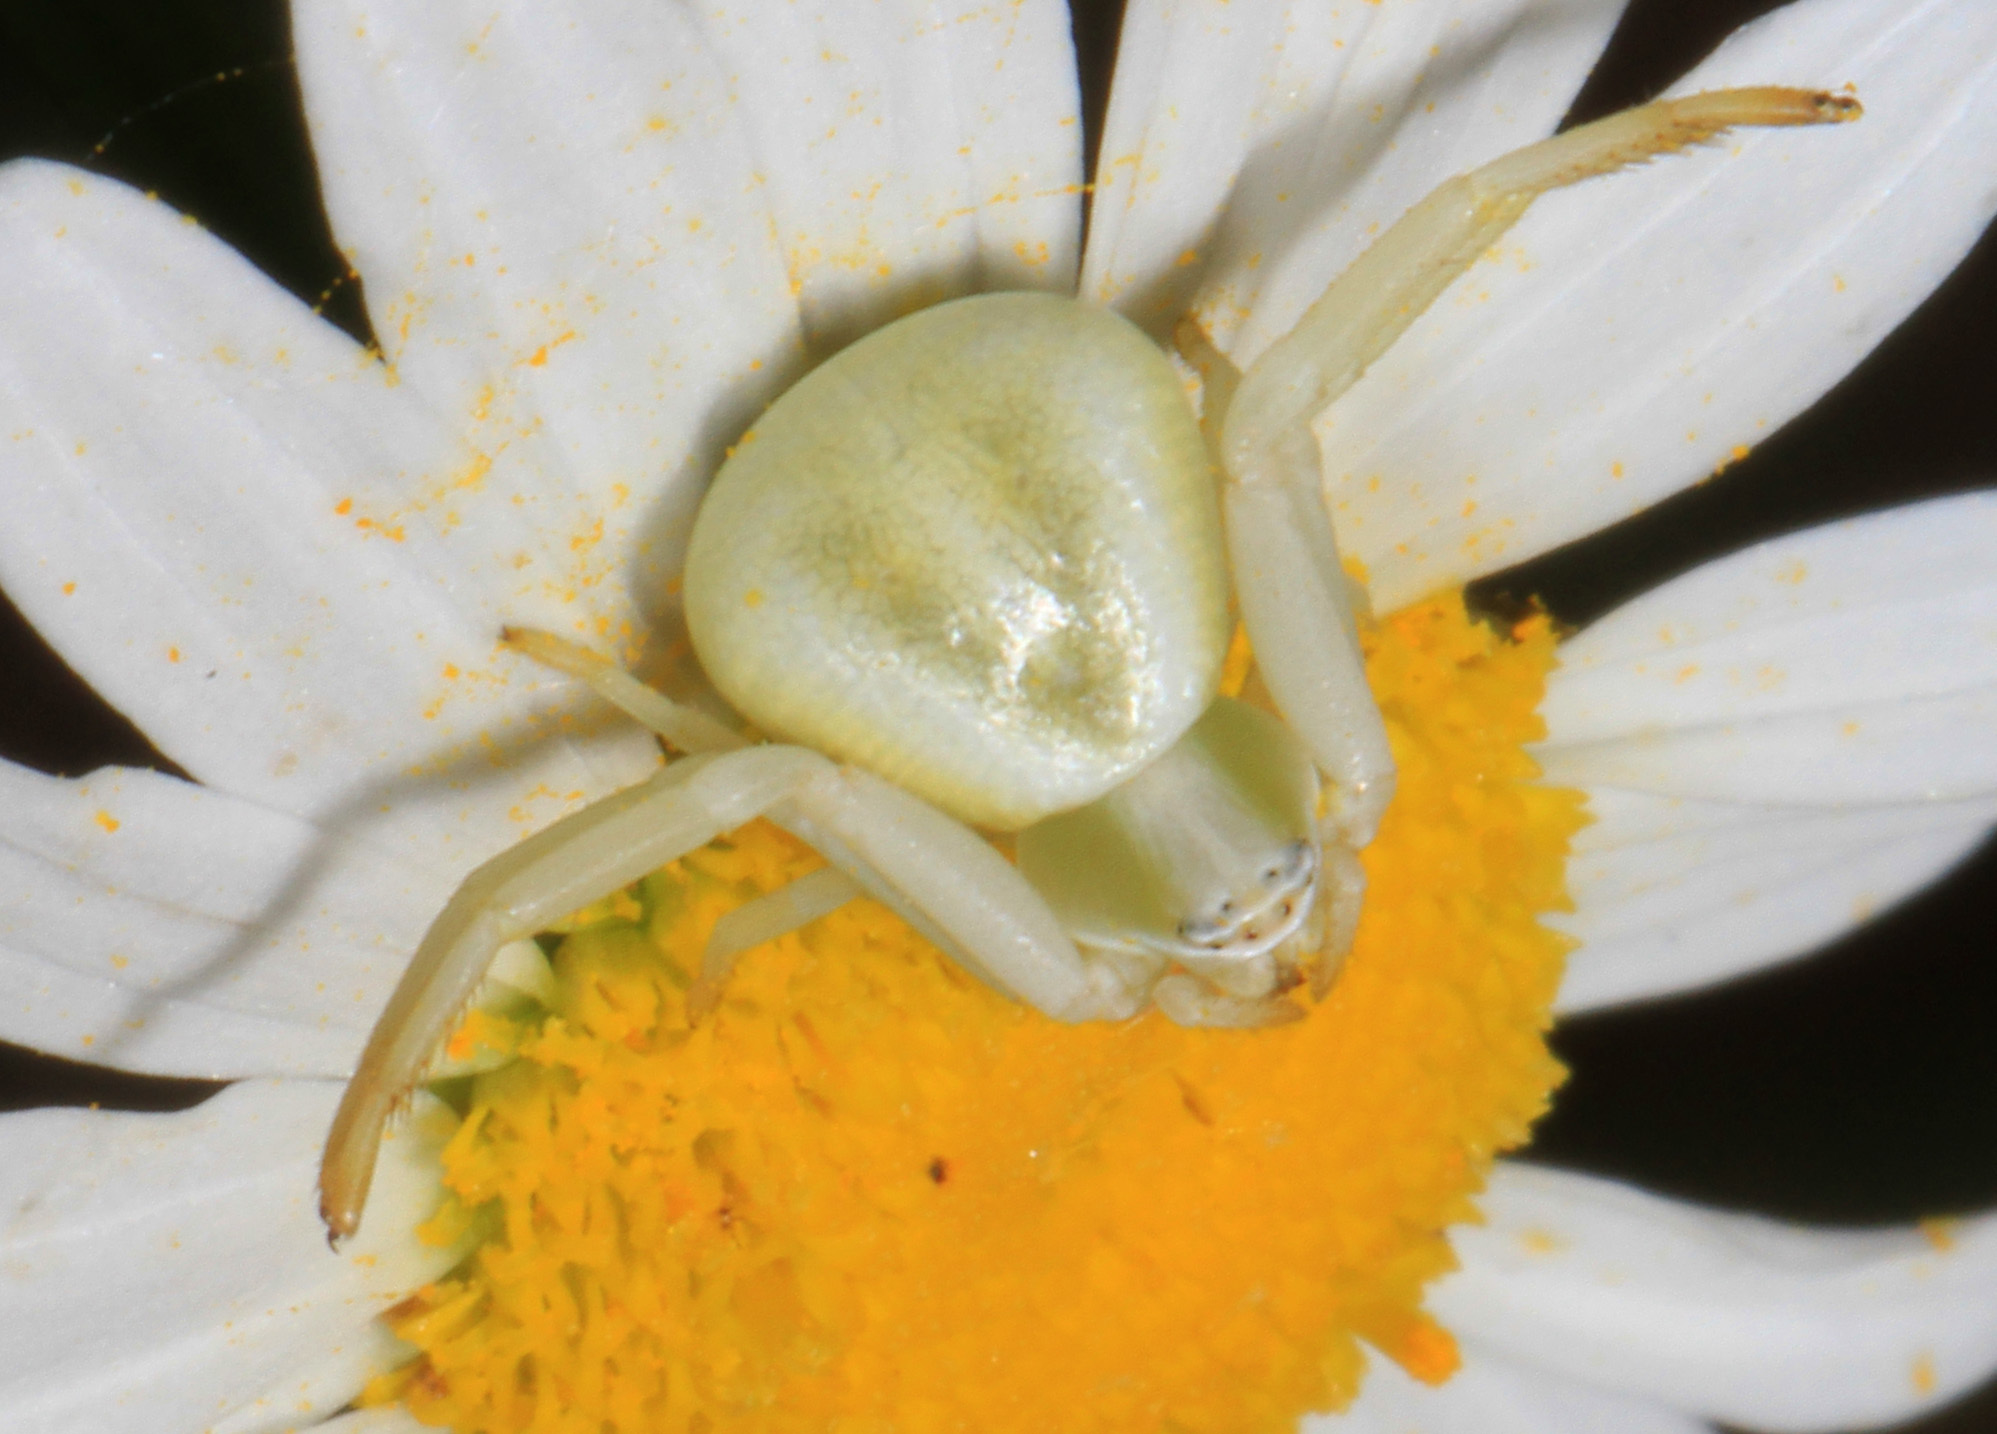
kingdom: Animalia
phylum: Arthropoda
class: Arachnida
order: Araneae
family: Thomisidae
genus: Misumenoides
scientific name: Misumenoides formosipes
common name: White-banded crab spider
